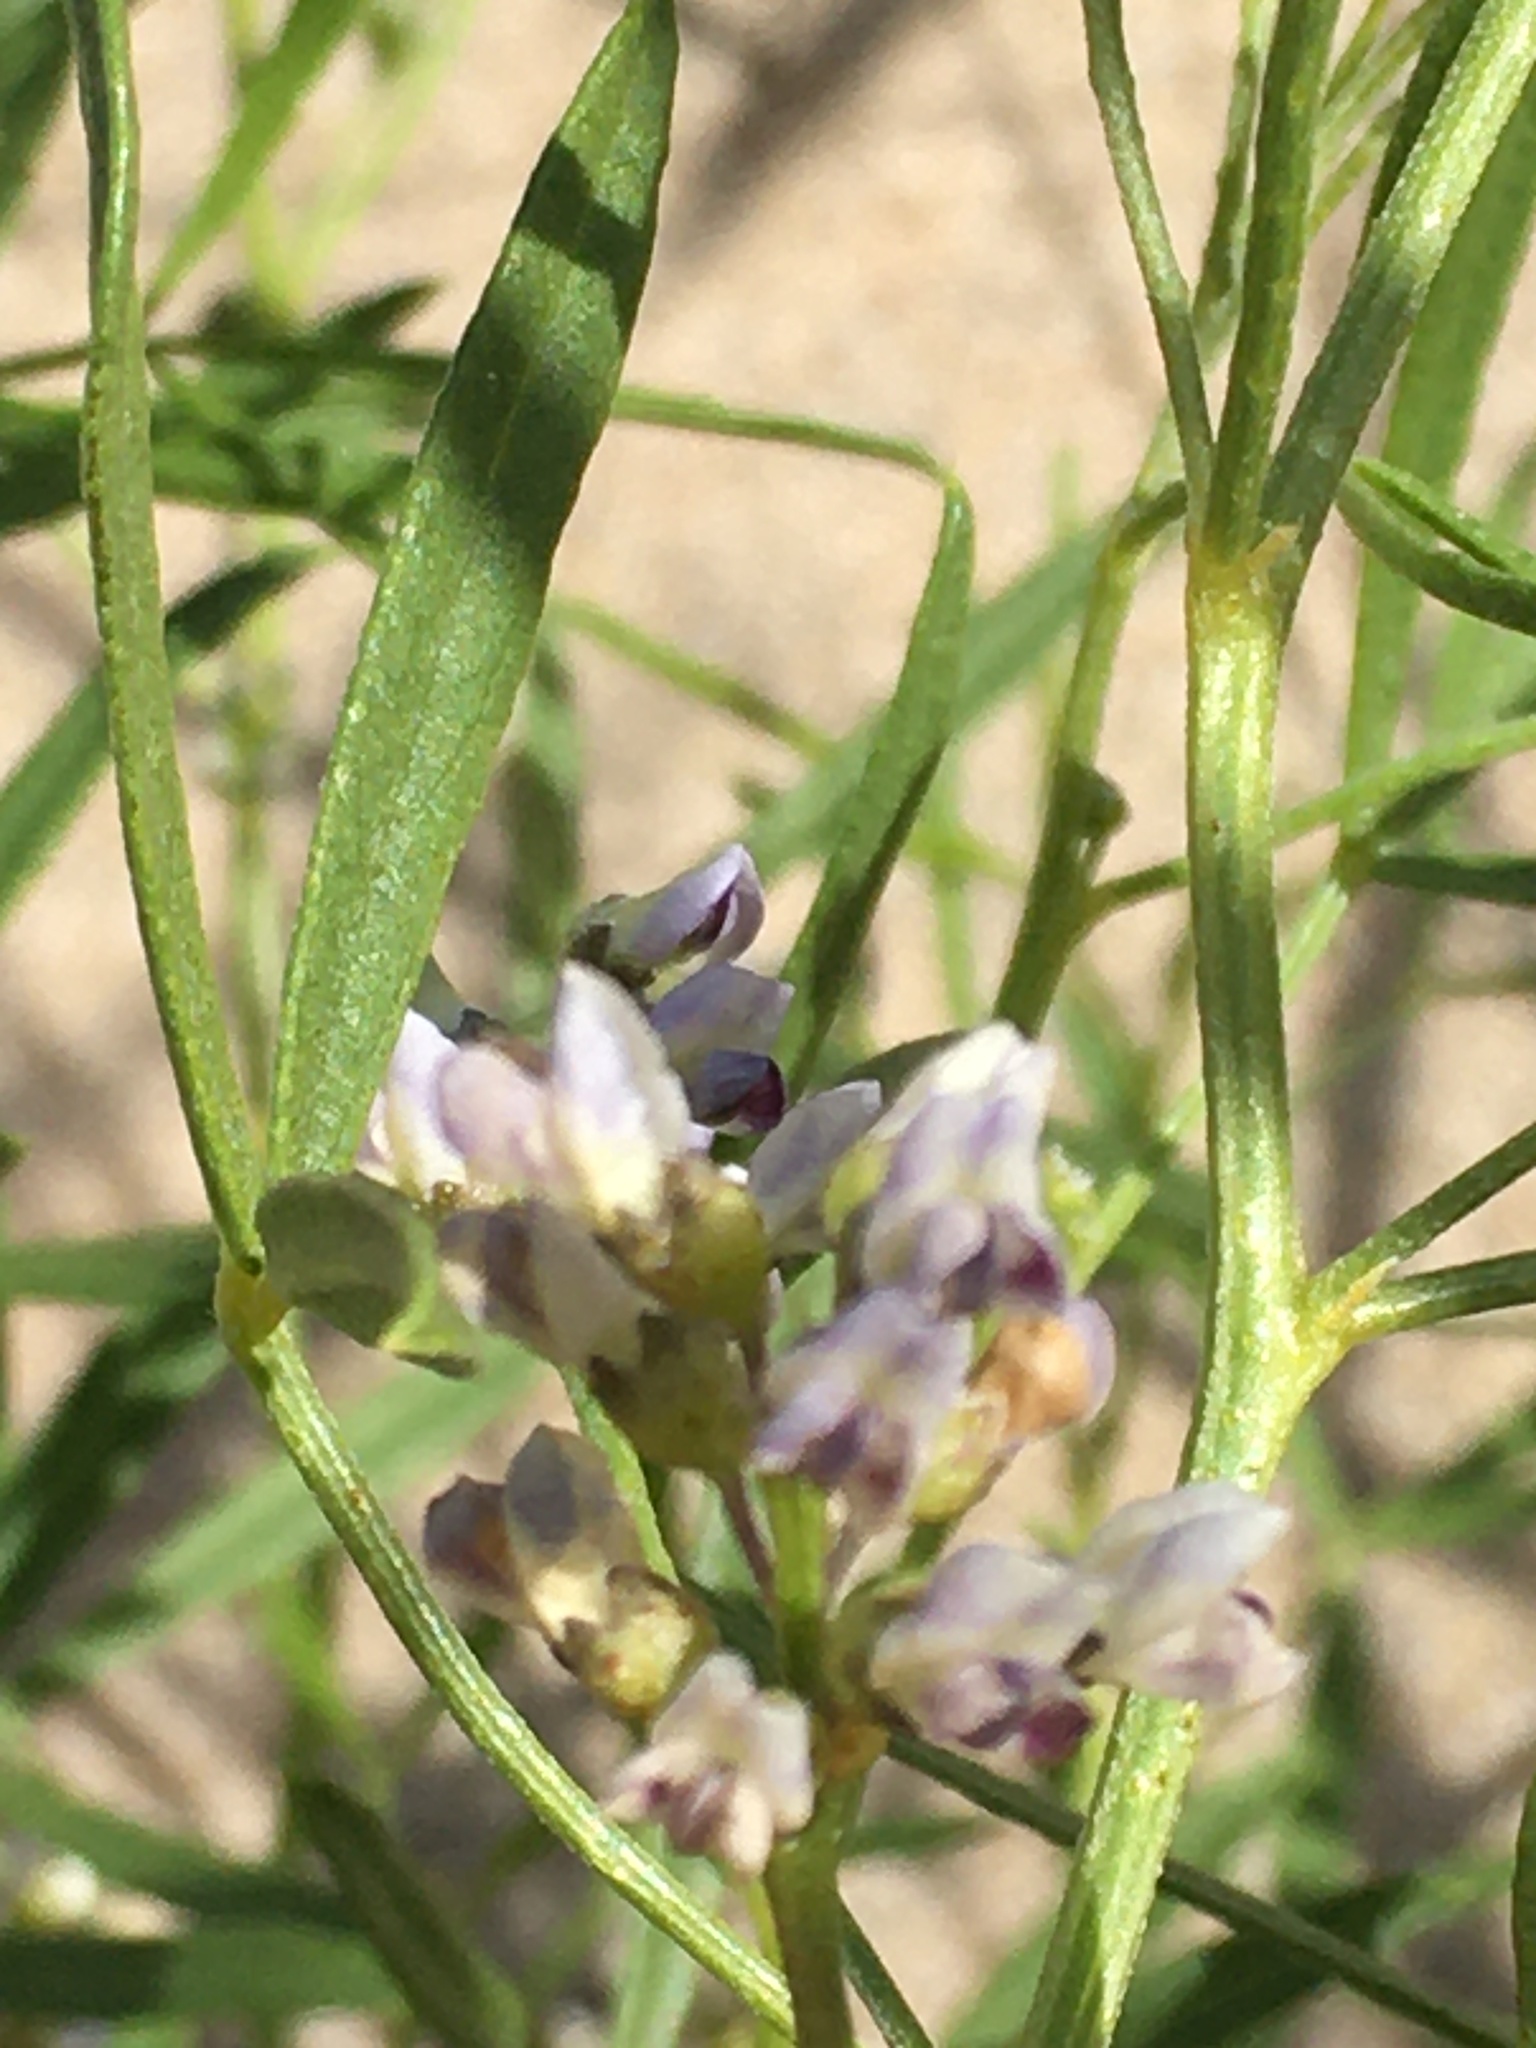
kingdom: Plantae
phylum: Tracheophyta
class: Magnoliopsida
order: Fabales
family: Fabaceae
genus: Ladeania
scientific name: Ladeania lanceolata
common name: Dune scurf-pea
